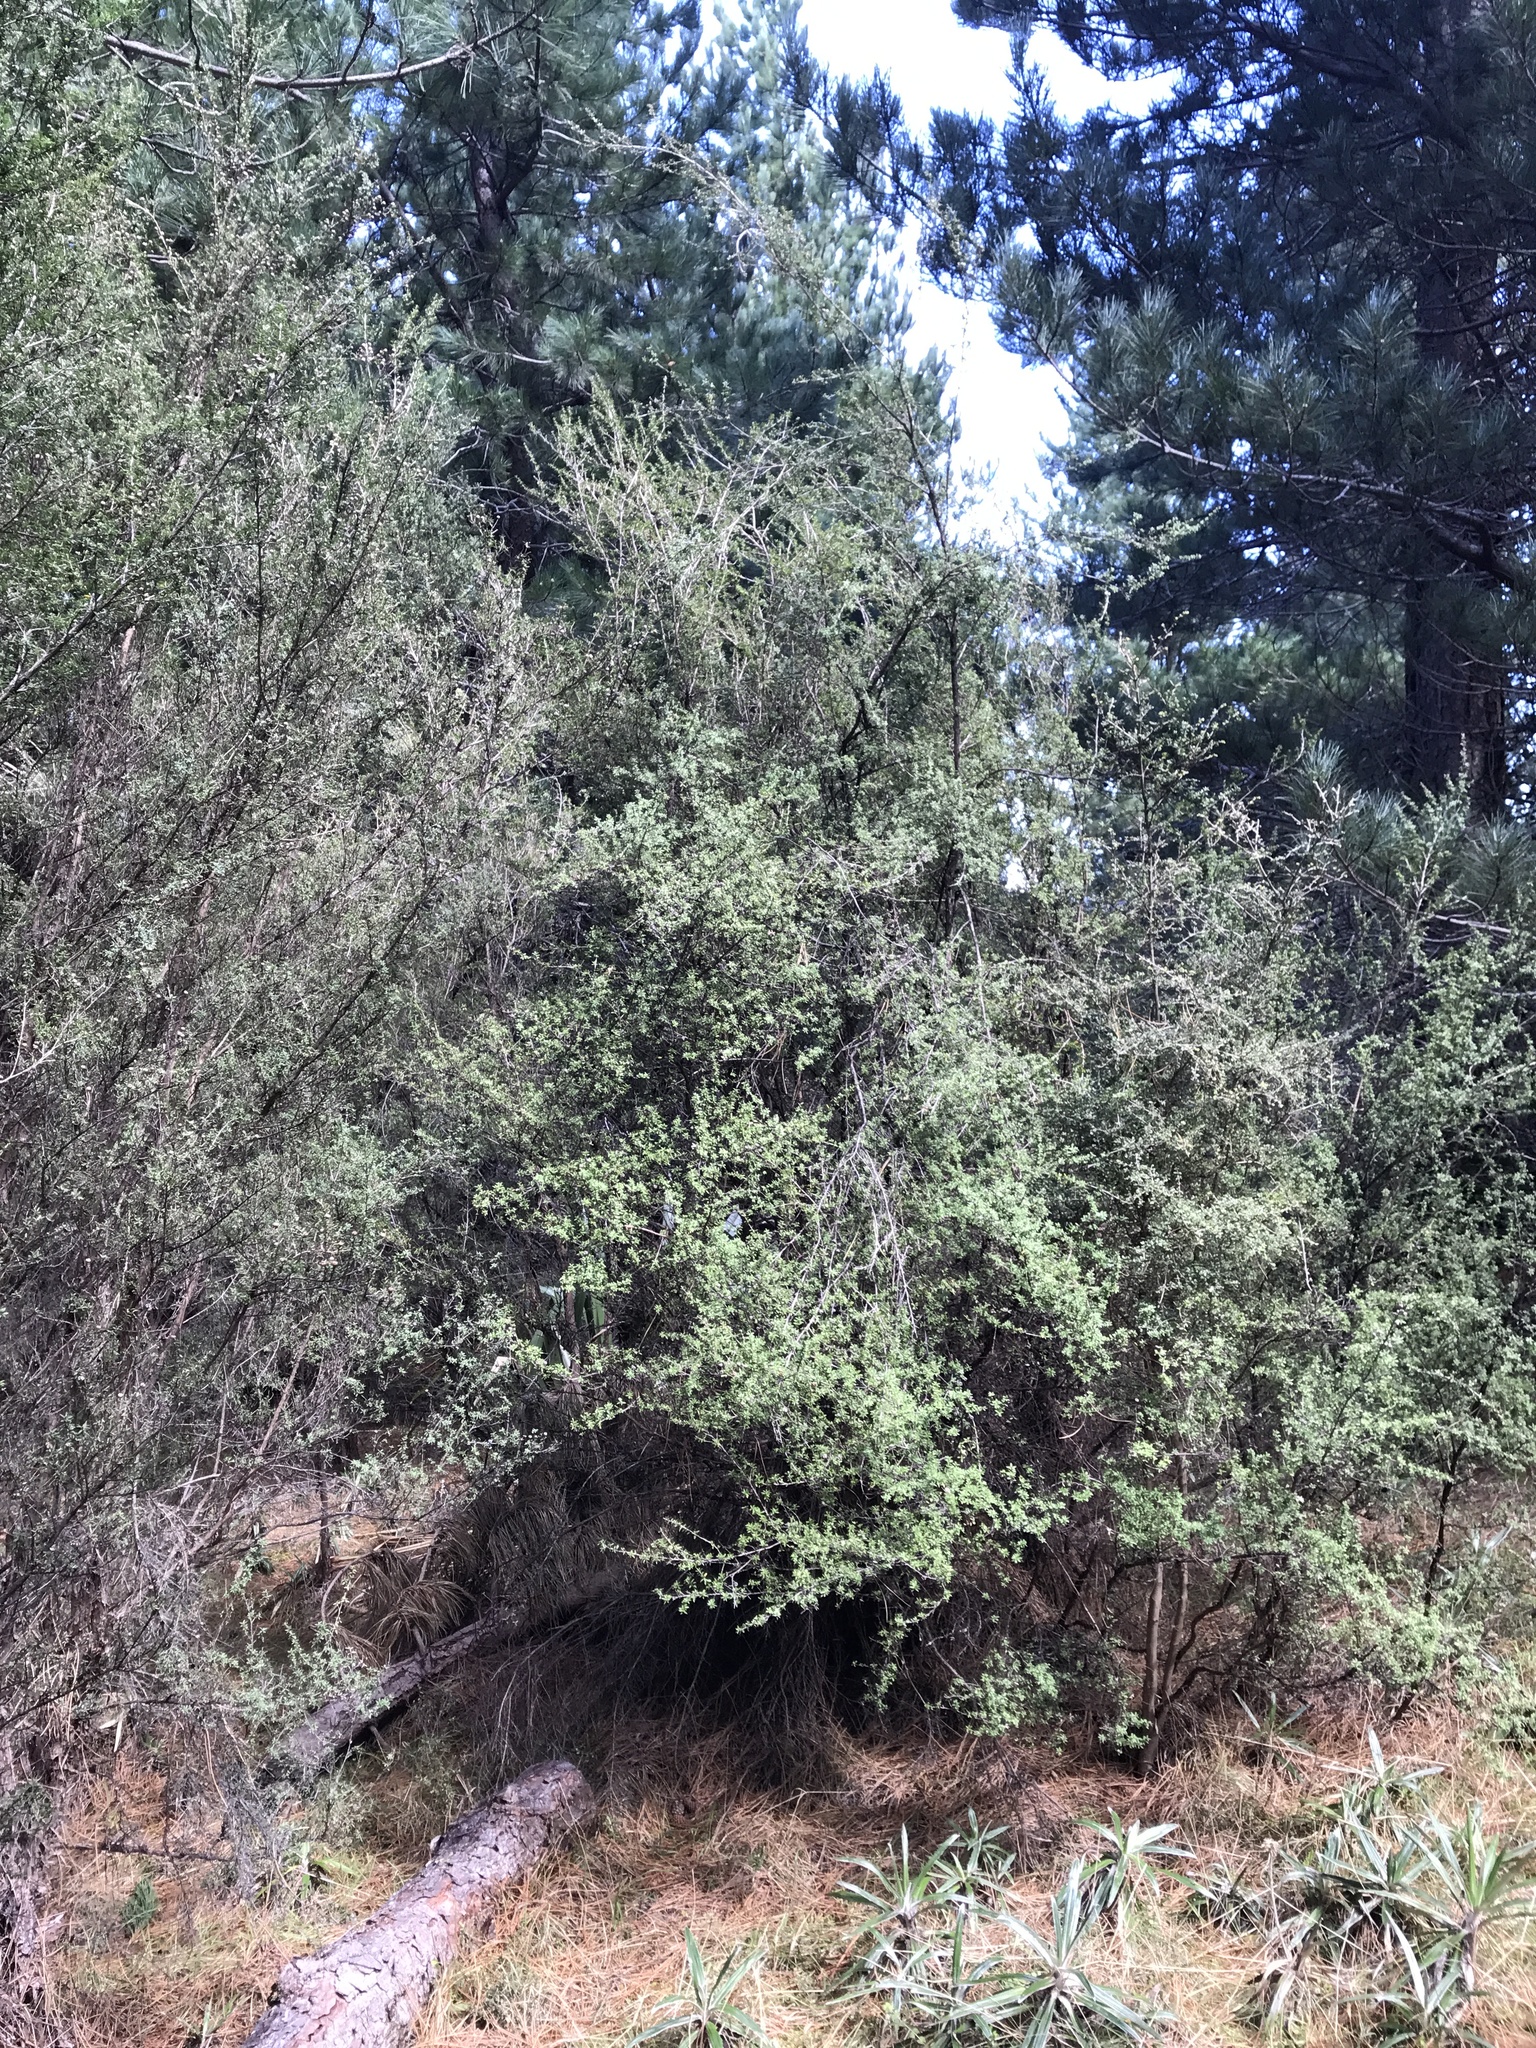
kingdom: Plantae
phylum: Tracheophyta
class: Magnoliopsida
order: Myrtales
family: Myrtaceae
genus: Leptospermum
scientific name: Leptospermum scoparium
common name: Broom tea-tree
